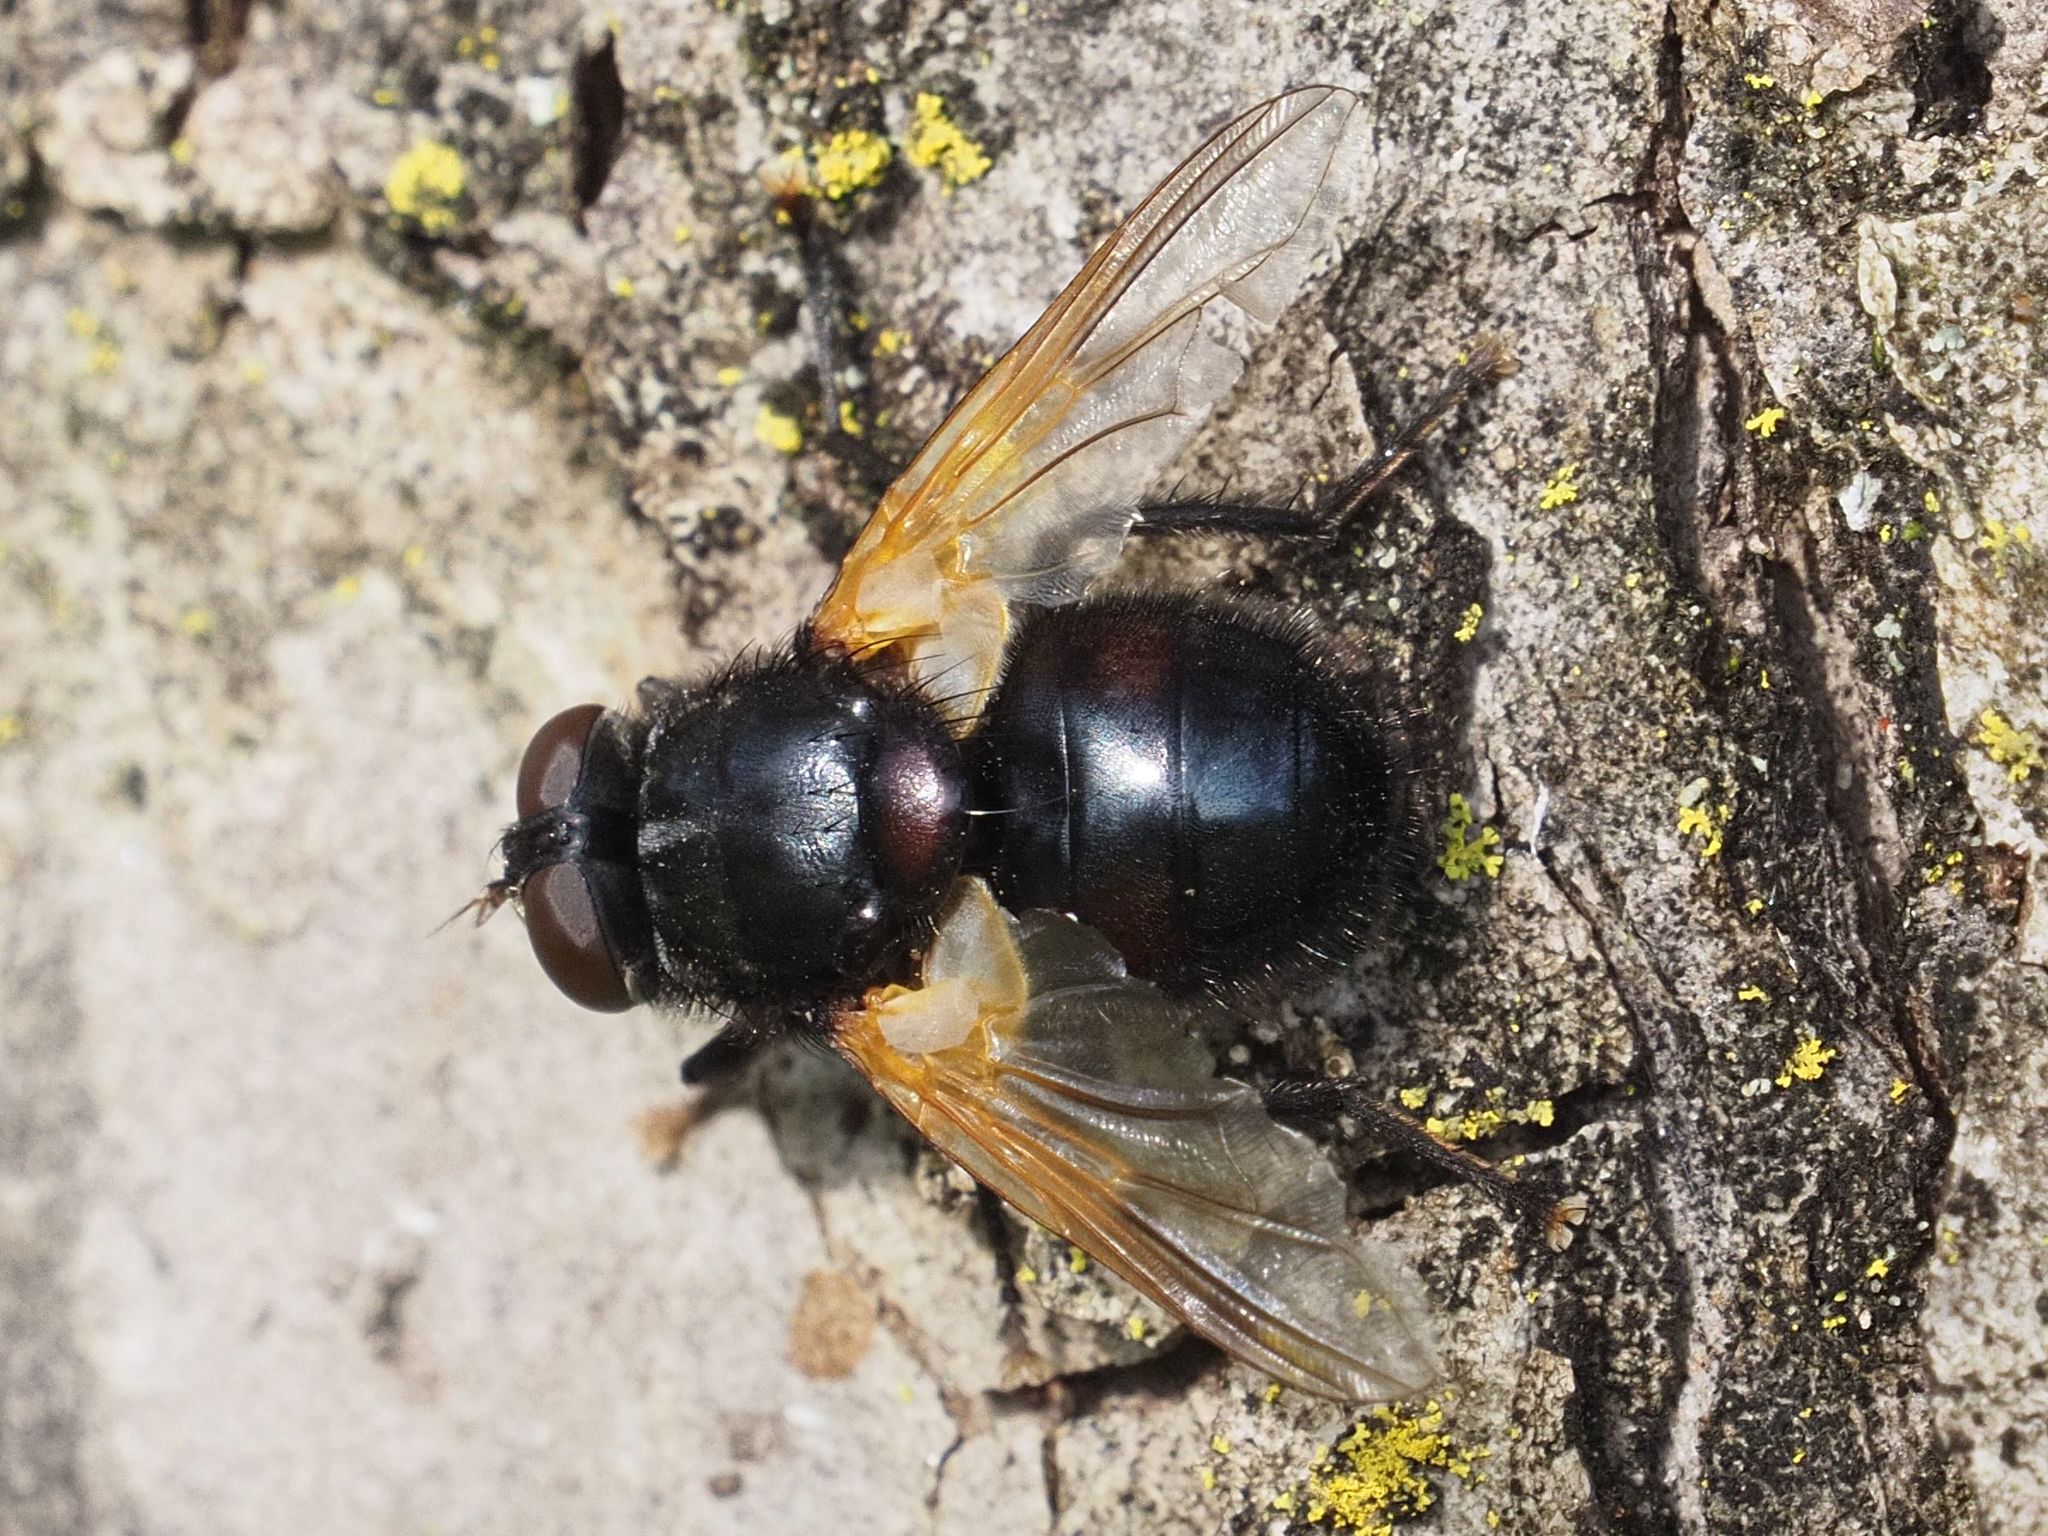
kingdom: Animalia
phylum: Arthropoda
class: Insecta
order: Diptera
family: Muscidae
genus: Mesembrina
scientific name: Mesembrina meridiana
